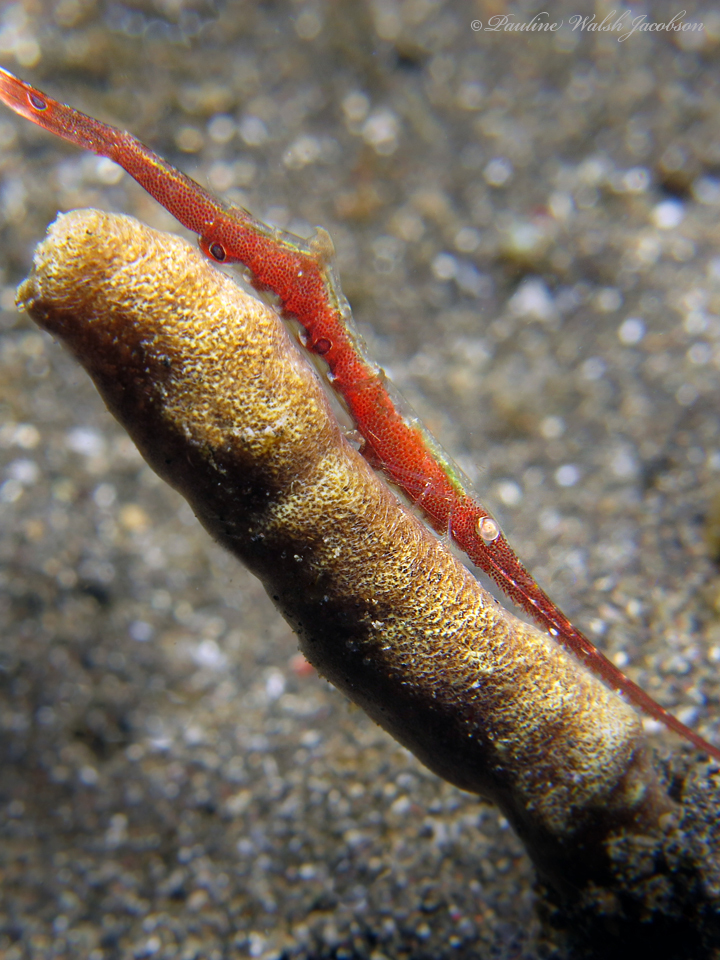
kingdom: Animalia
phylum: Arthropoda
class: Malacostraca
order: Decapoda
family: Hippolytidae
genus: Tozeuma
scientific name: Tozeuma lanceolatum
